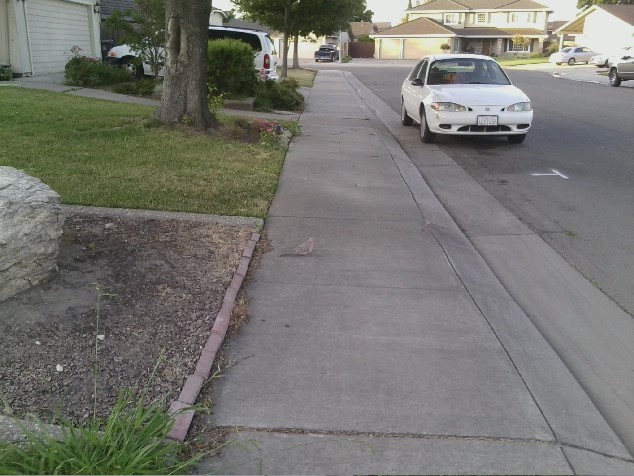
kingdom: Animalia
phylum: Chordata
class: Aves
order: Columbiformes
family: Columbidae
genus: Zenaida
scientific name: Zenaida macroura
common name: Mourning dove
